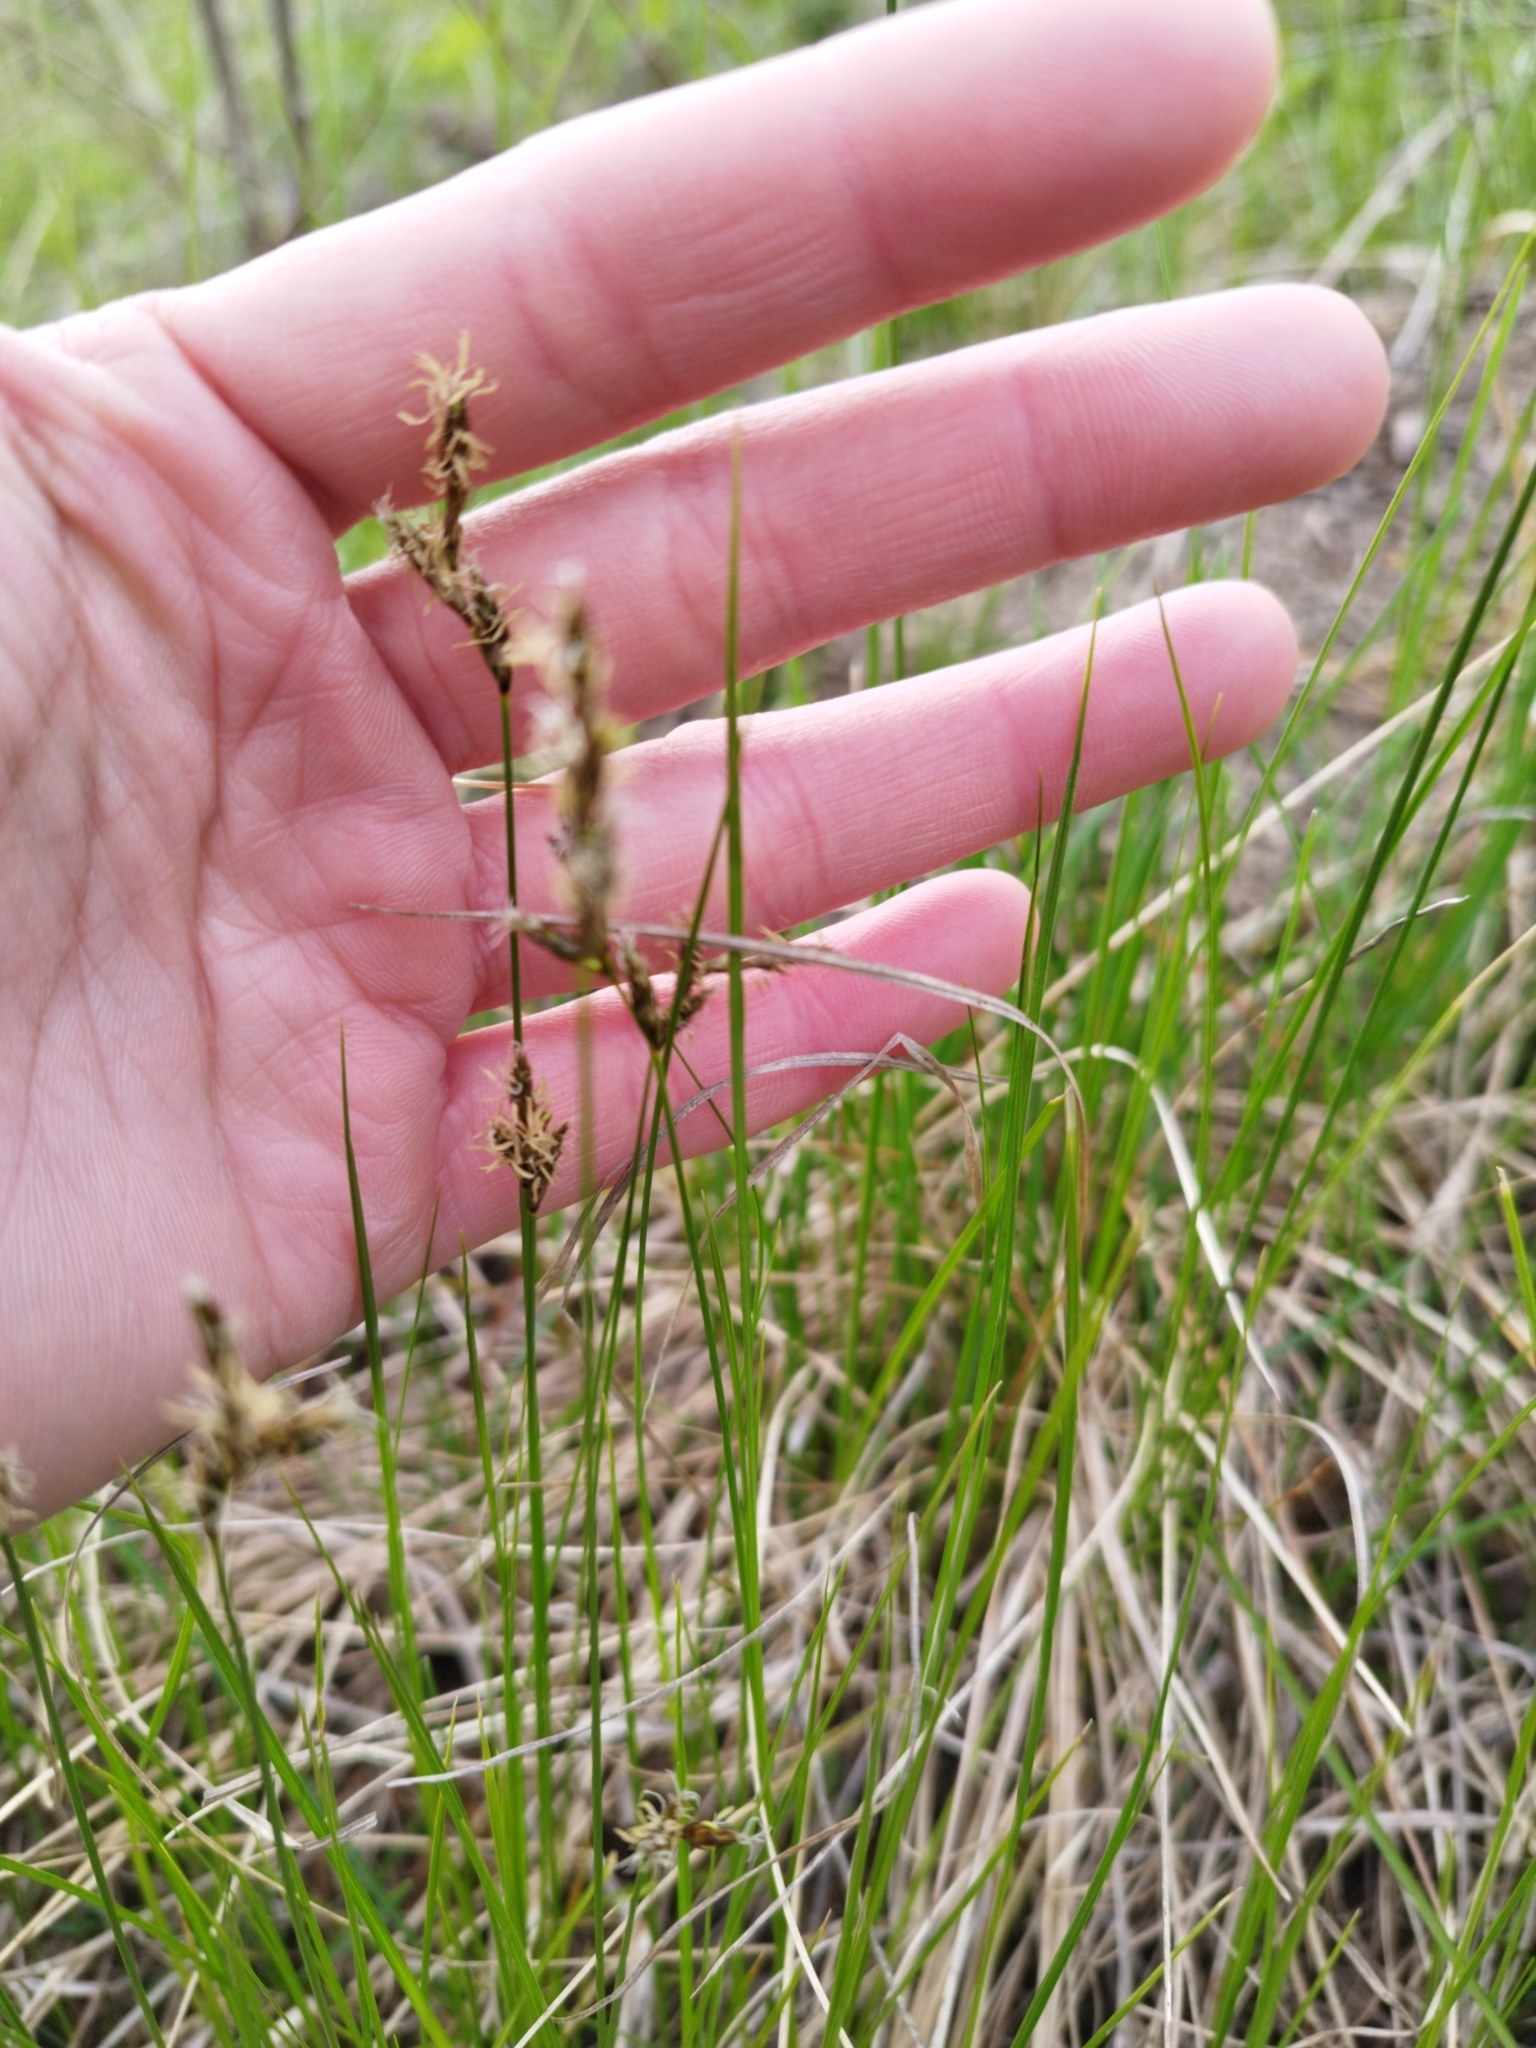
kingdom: Plantae
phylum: Tracheophyta
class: Liliopsida
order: Poales
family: Cyperaceae
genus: Carex
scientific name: Carex praecox
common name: Early sedge
